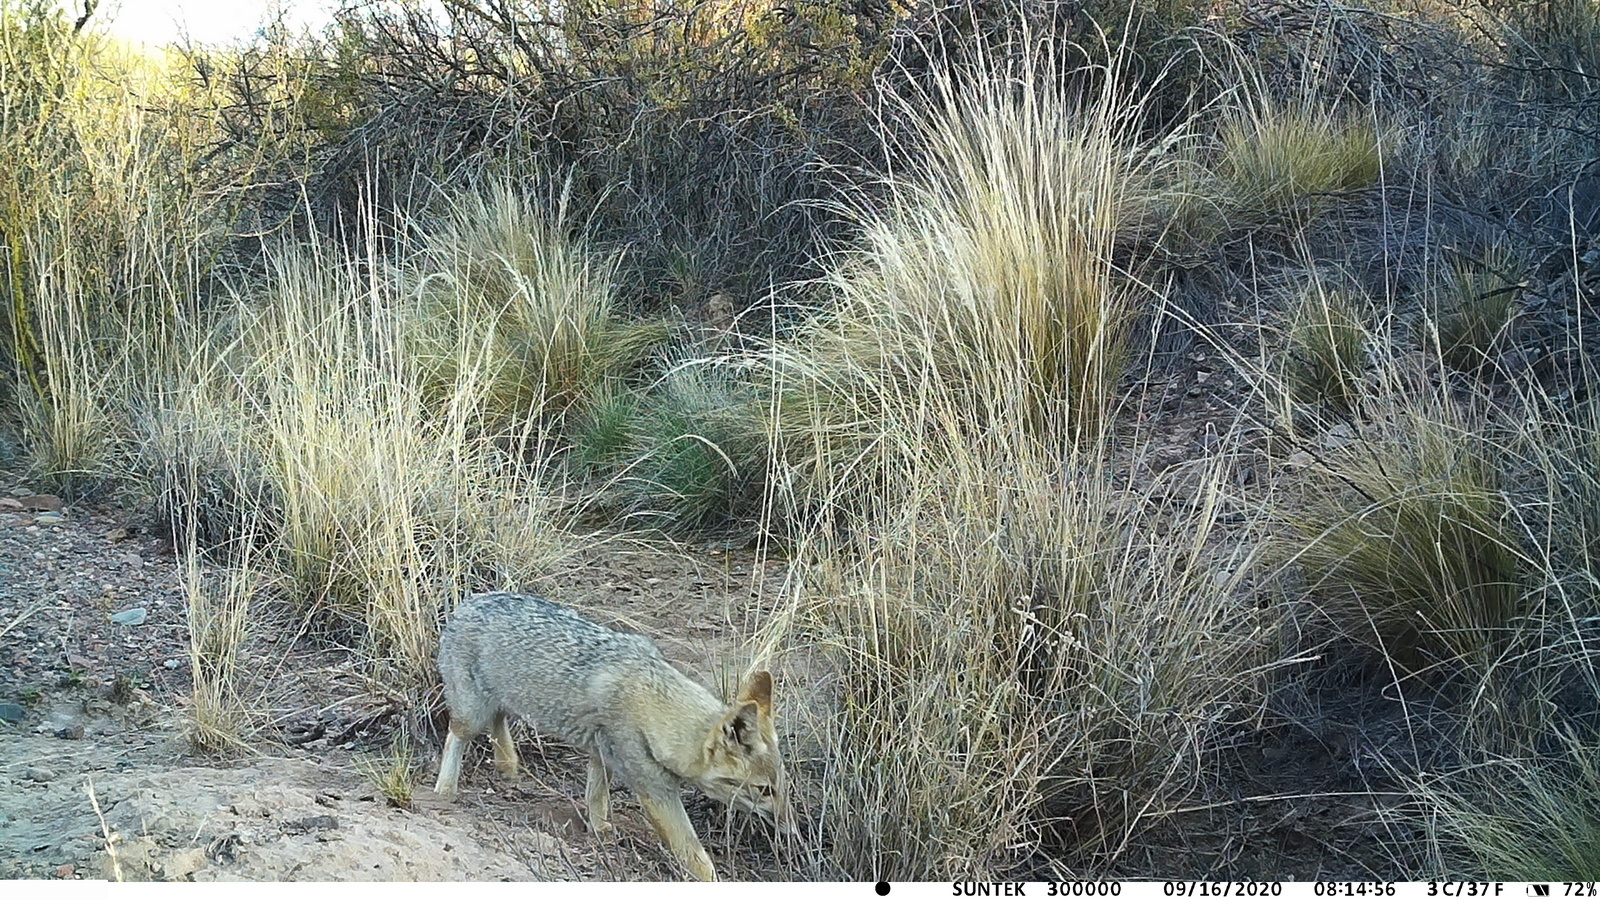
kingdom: Animalia
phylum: Chordata
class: Mammalia
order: Carnivora
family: Canidae
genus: Lycalopex
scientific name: Lycalopex gymnocercus
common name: Pampas fox
